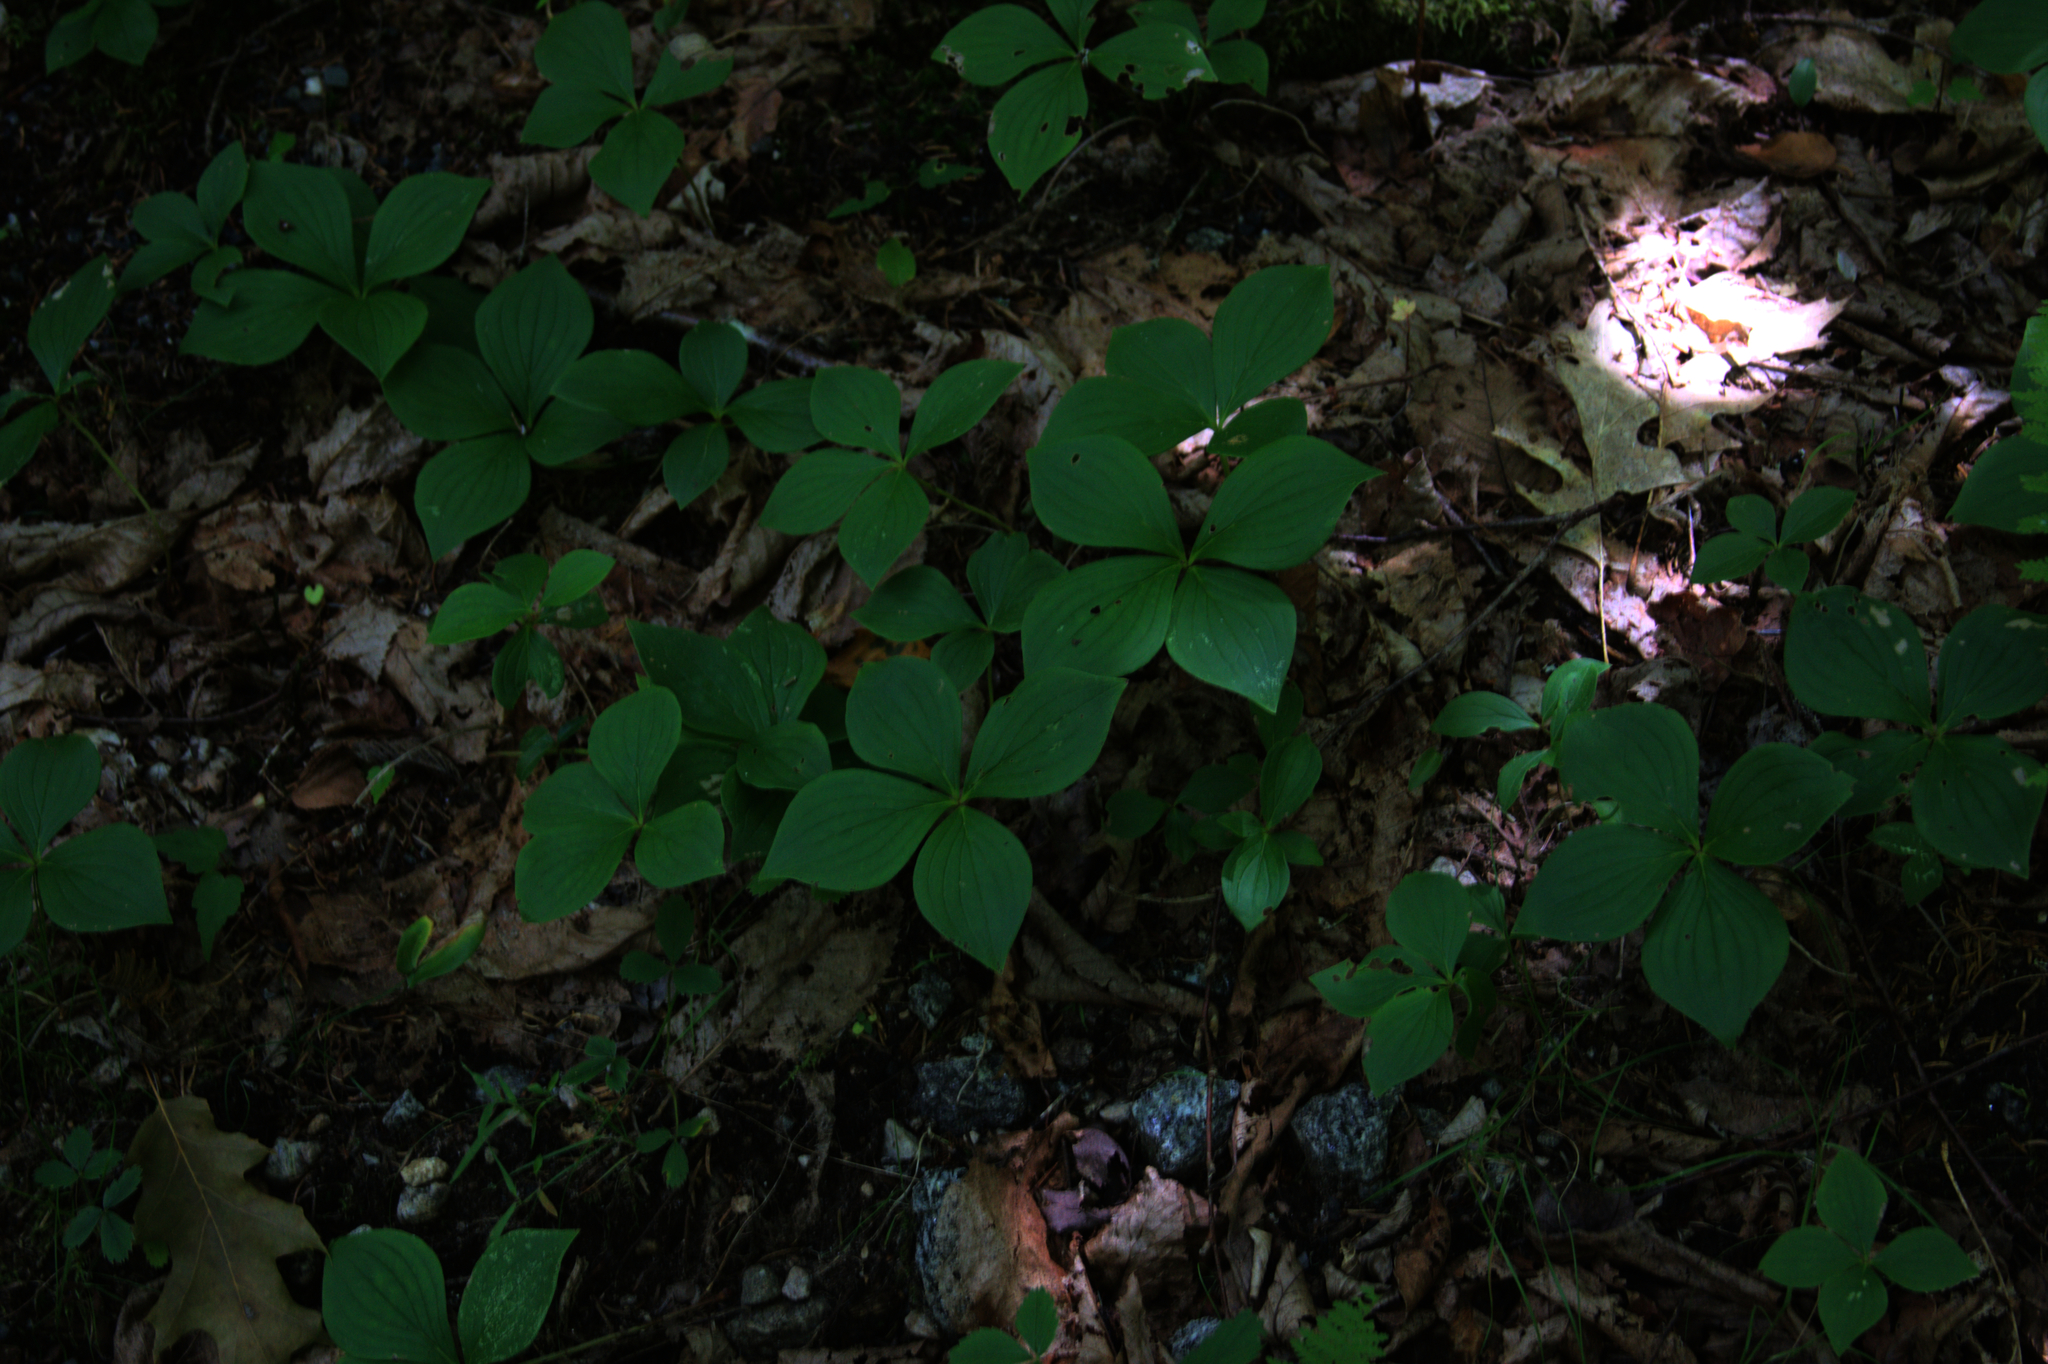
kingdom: Plantae
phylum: Tracheophyta
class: Magnoliopsida
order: Cornales
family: Cornaceae
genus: Cornus
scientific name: Cornus canadensis
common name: Creeping dogwood
